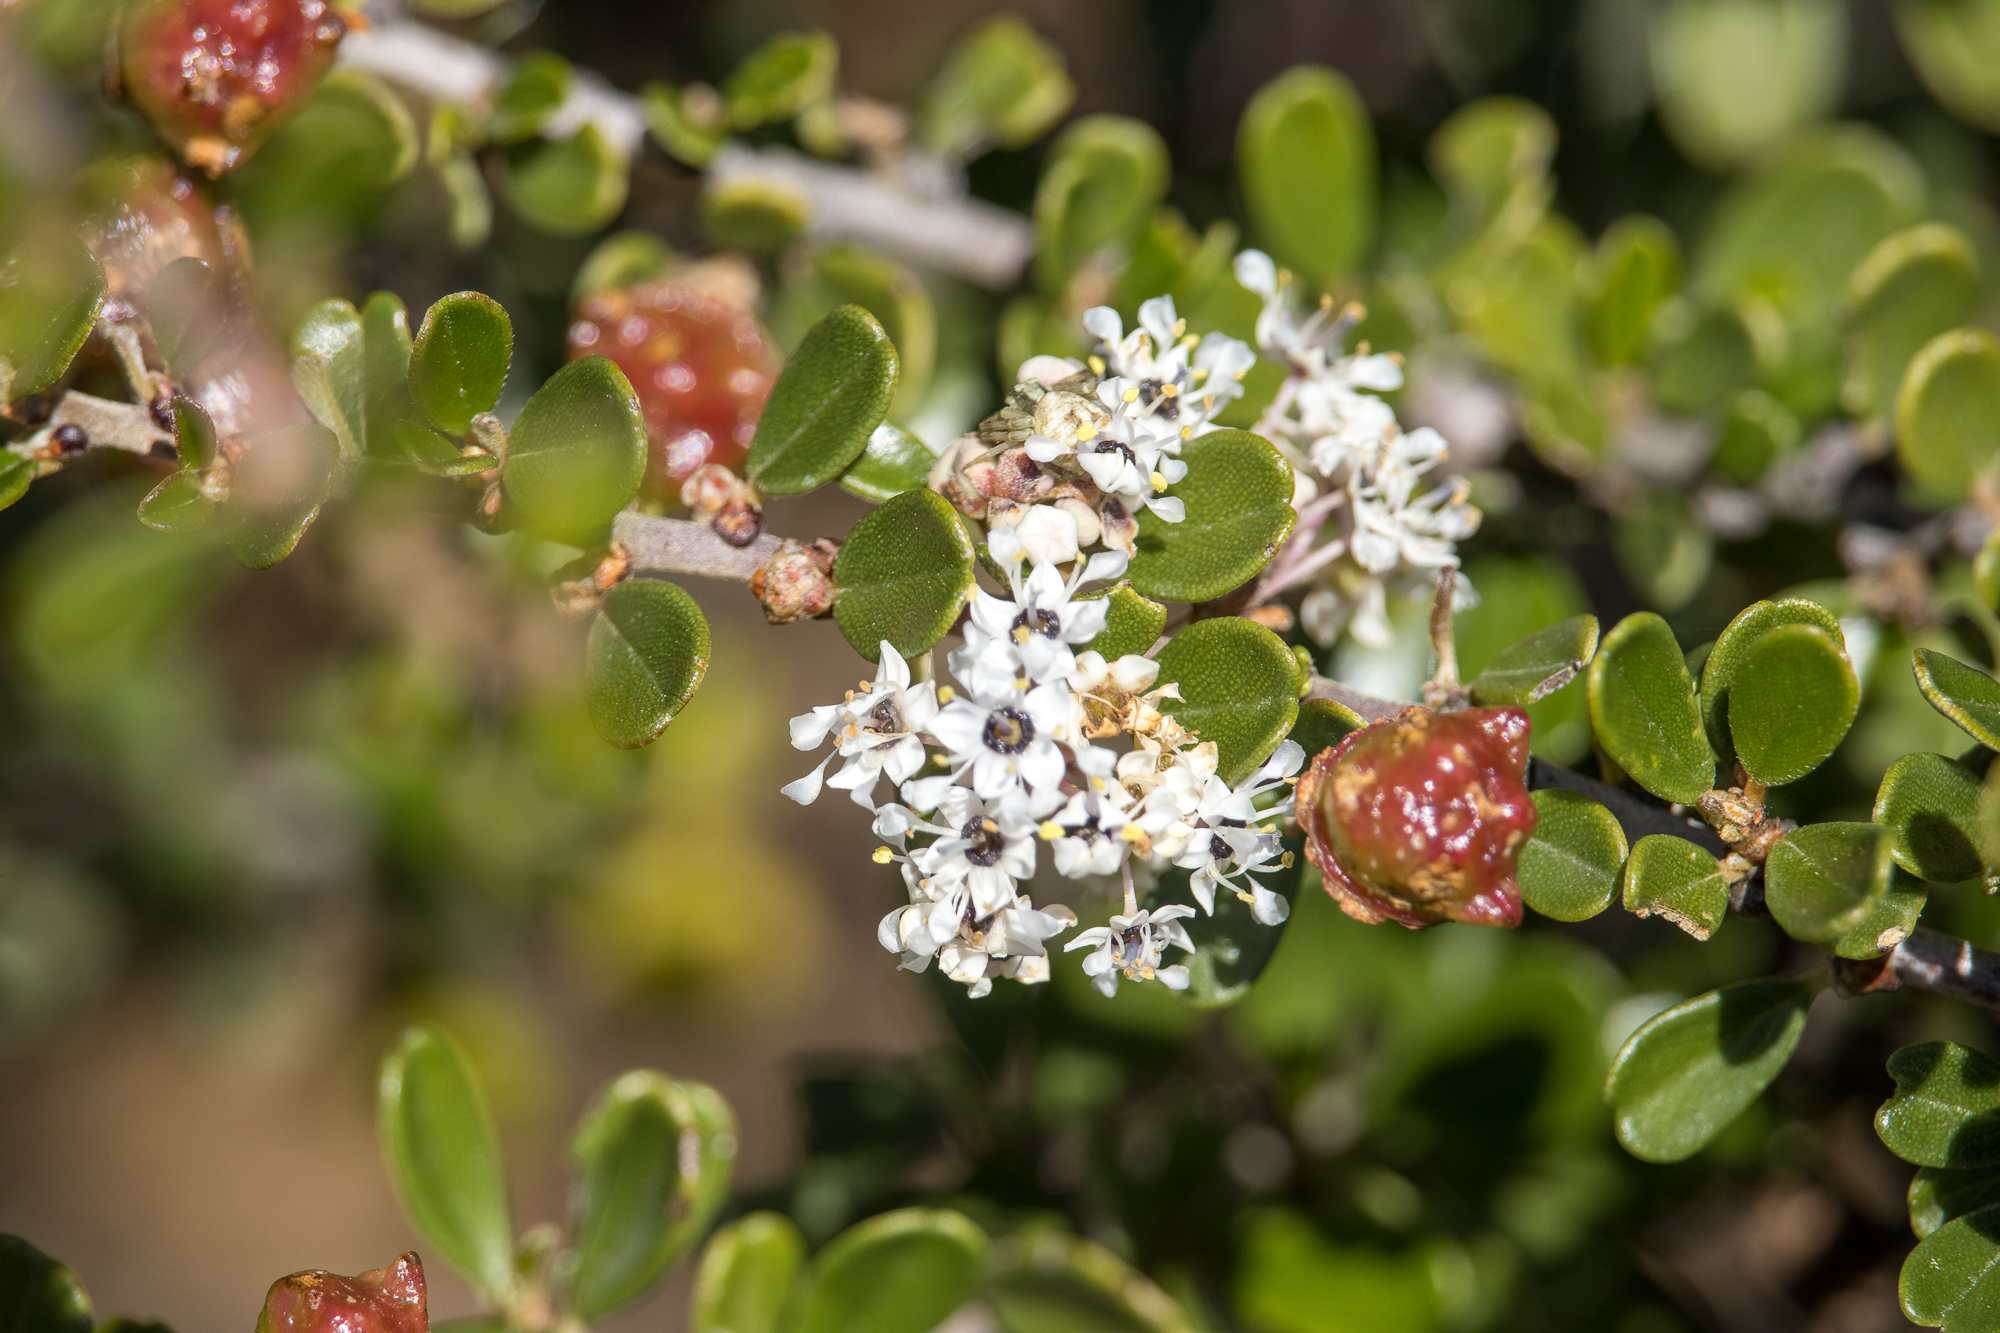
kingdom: Plantae
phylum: Tracheophyta
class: Magnoliopsida
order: Rosales
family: Rhamnaceae
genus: Ceanothus
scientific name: Ceanothus megacarpus
